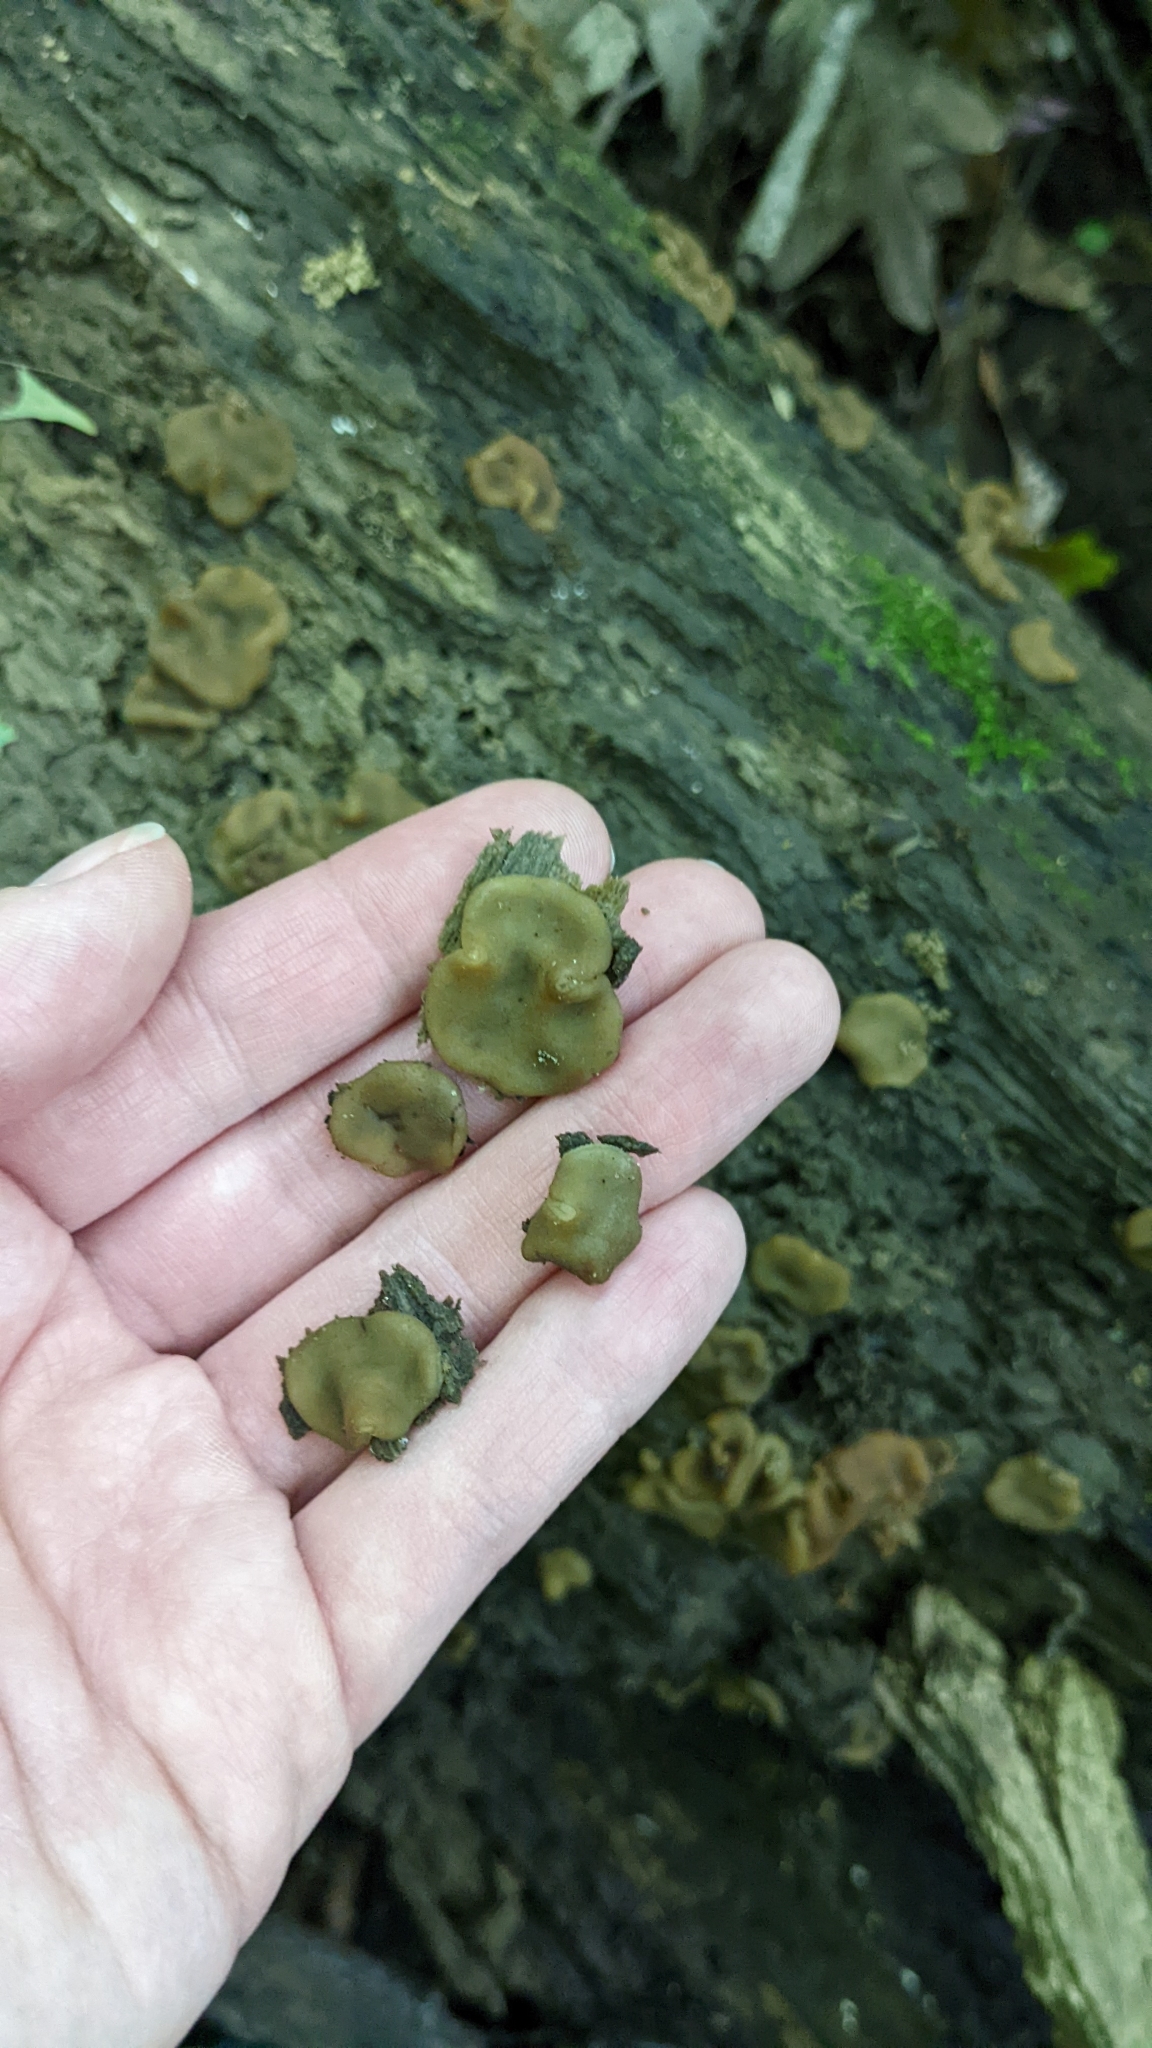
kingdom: Fungi
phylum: Ascomycota
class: Pezizomycetes
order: Pezizales
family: Pezizaceae
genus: Pachyella
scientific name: Pachyella clypeata
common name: Copper penny fungus
